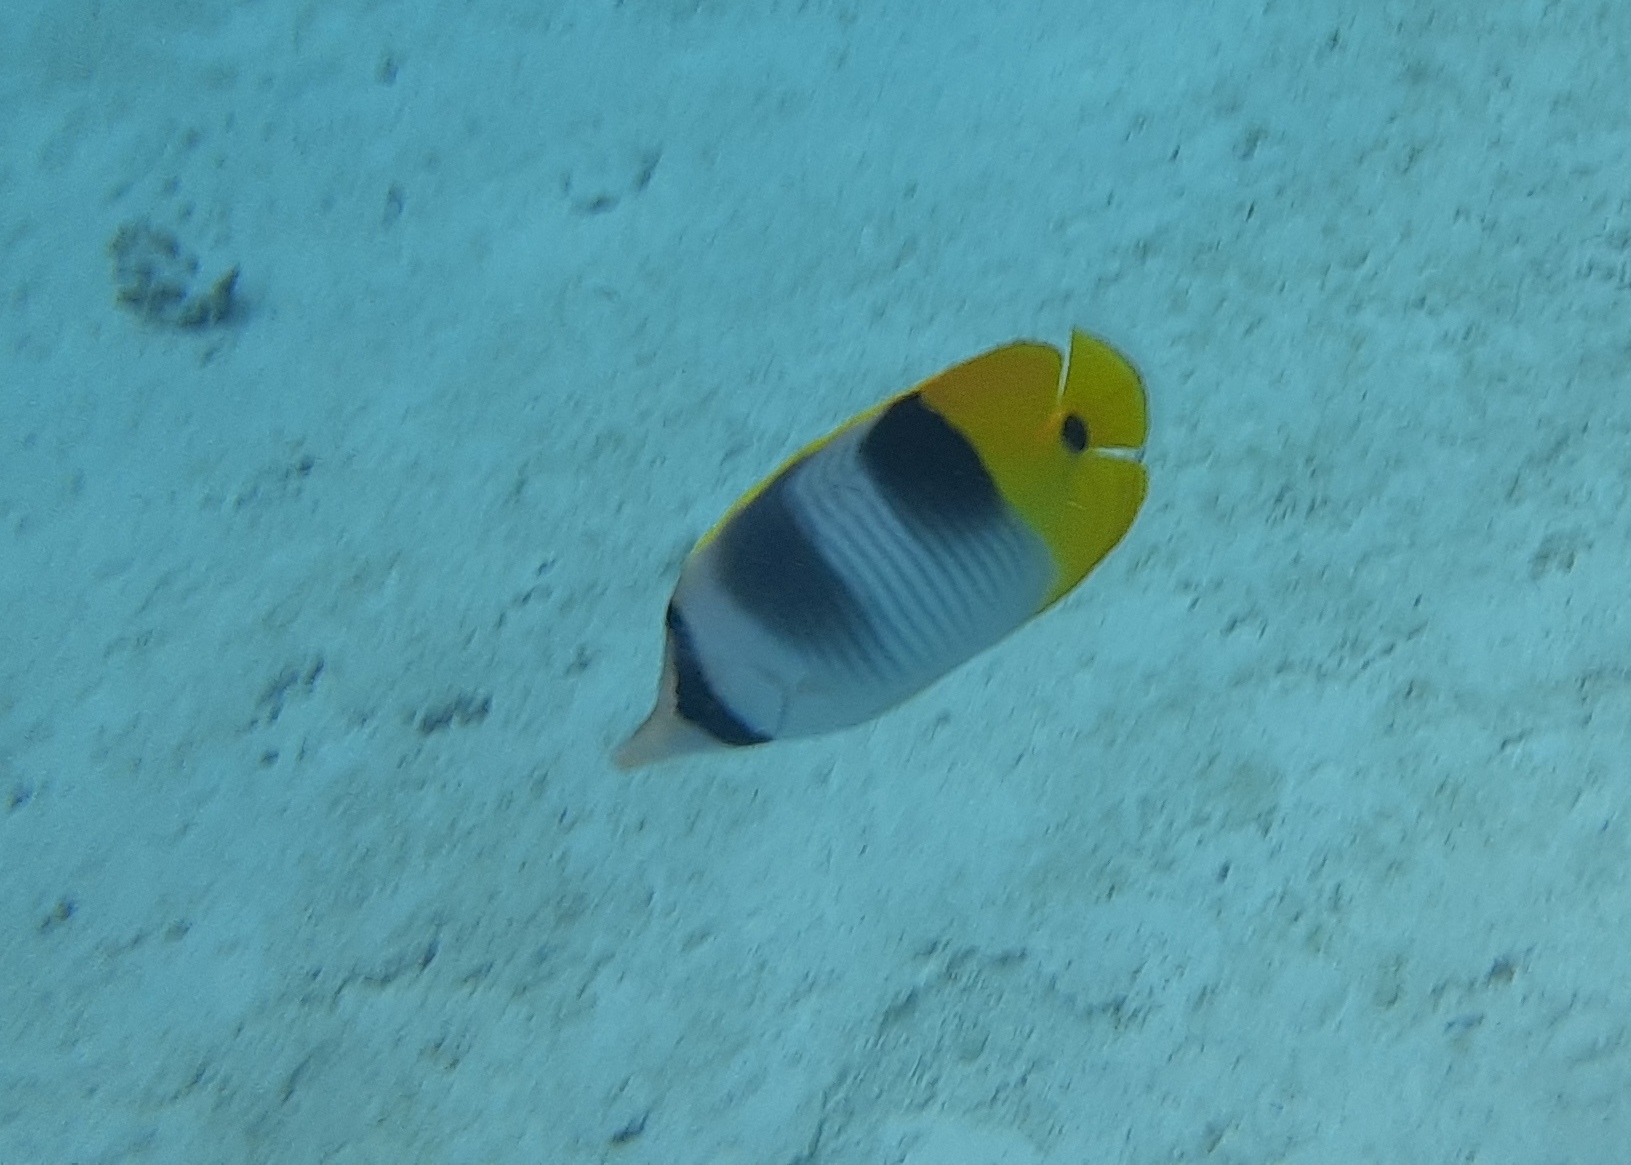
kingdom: Animalia
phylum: Chordata
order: Perciformes
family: Chaetodontidae
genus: Chaetodon
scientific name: Chaetodon ulietensis
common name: Pacific double-saddle butterflyfish
